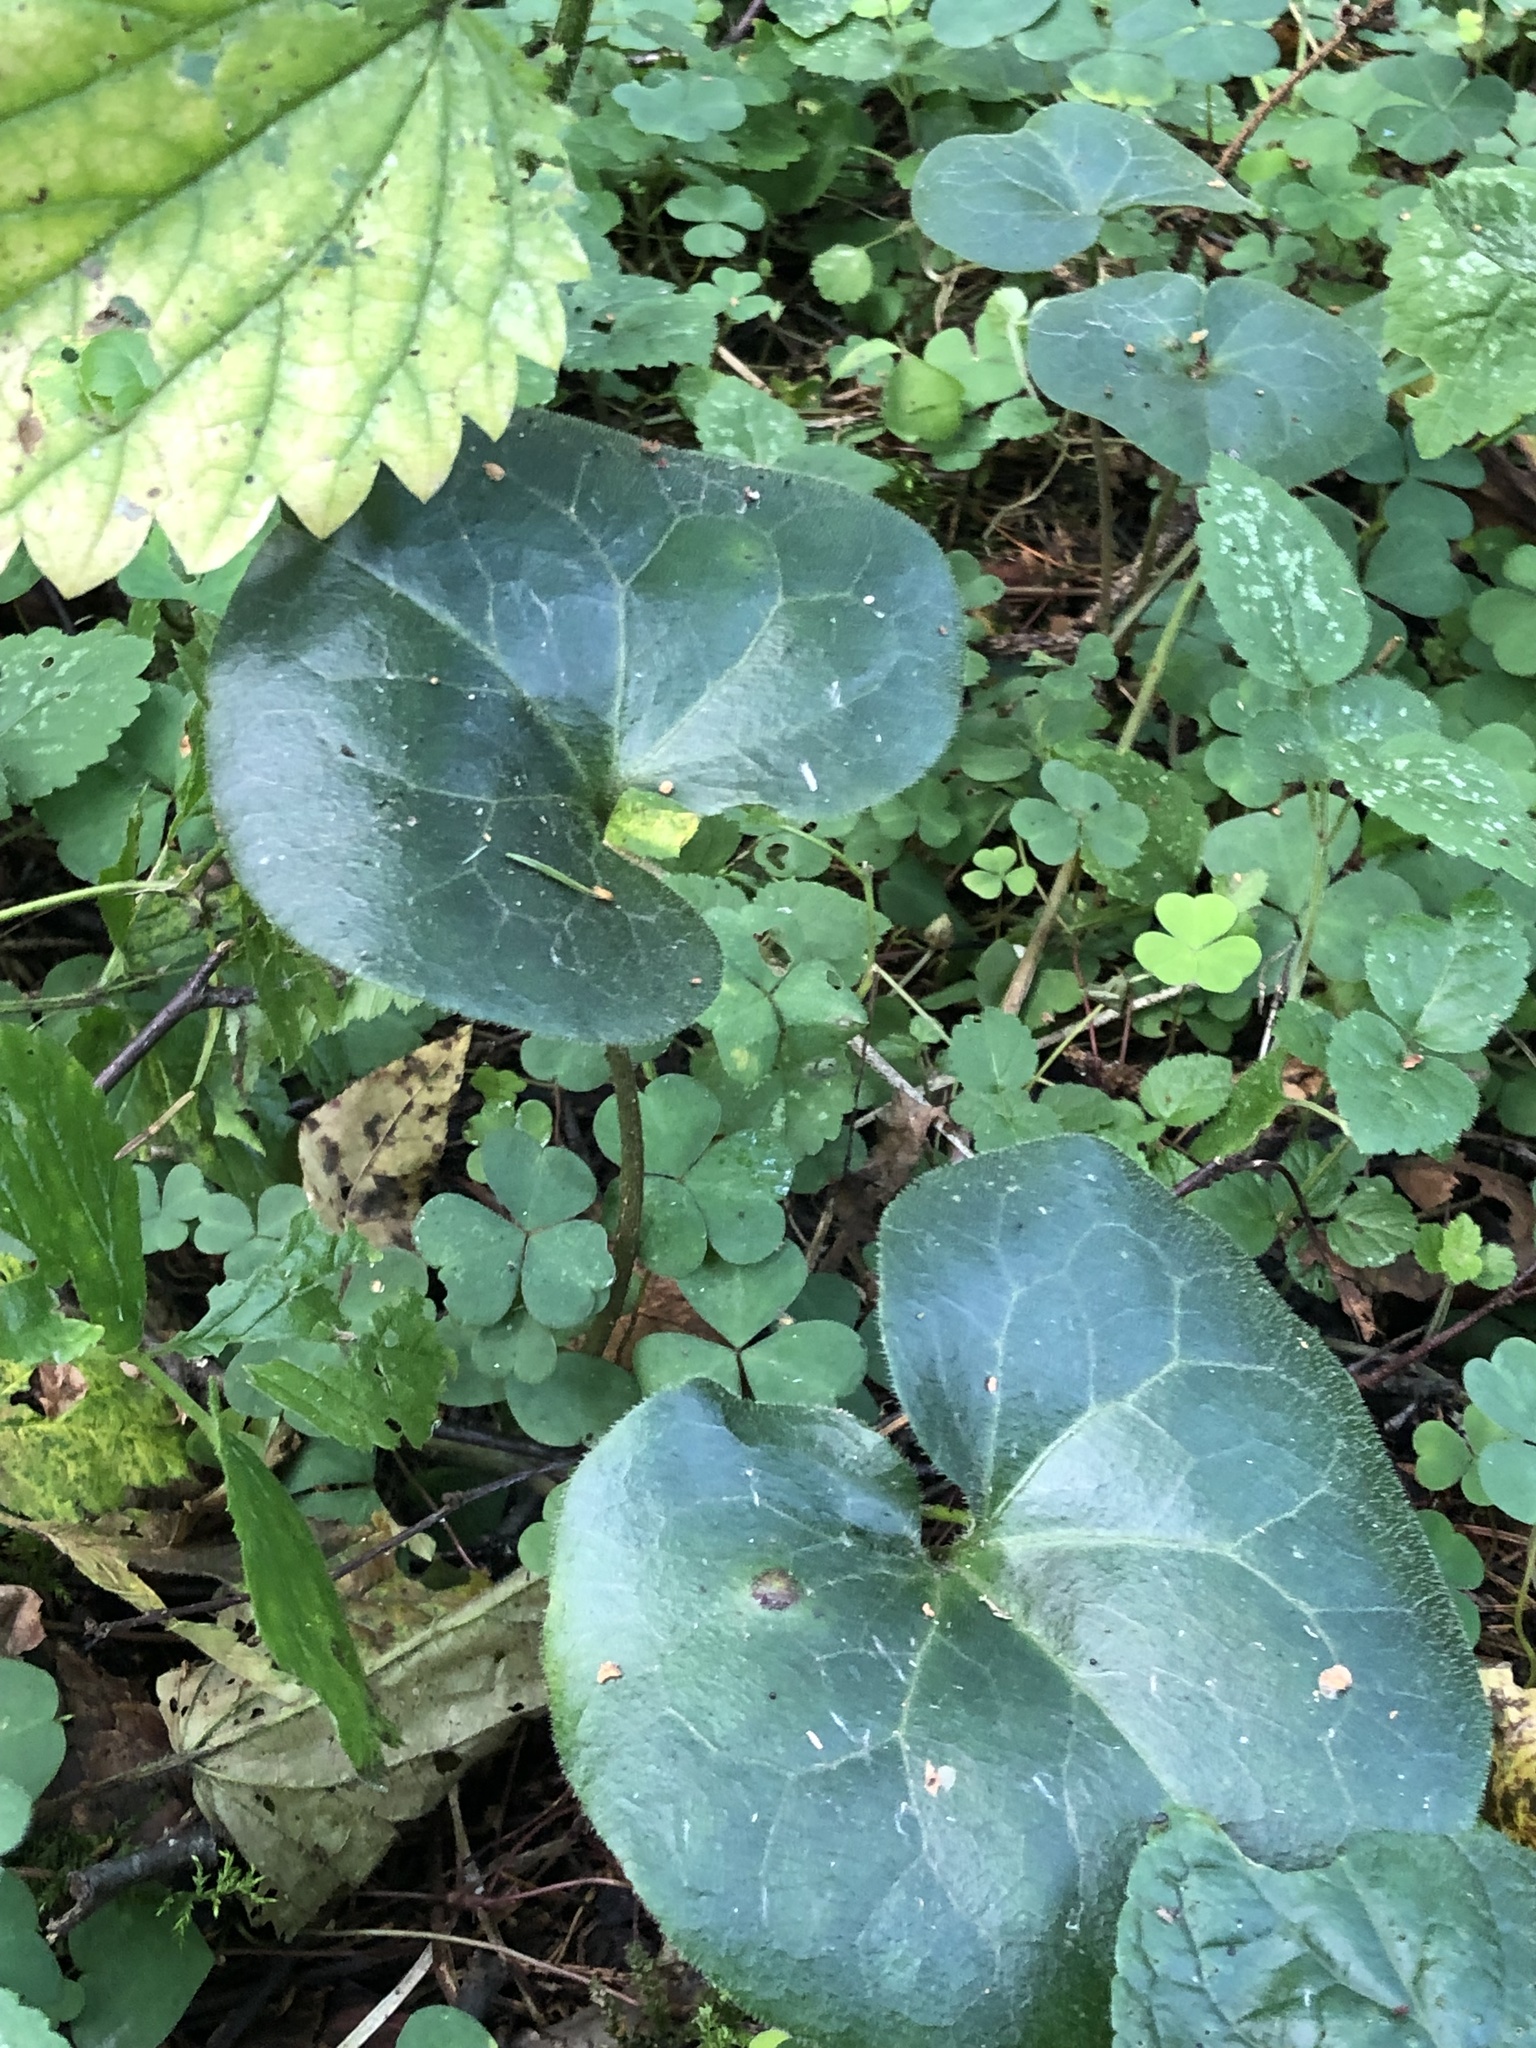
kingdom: Plantae
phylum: Tracheophyta
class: Magnoliopsida
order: Piperales
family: Aristolochiaceae
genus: Asarum
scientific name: Asarum europaeum
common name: Asarabacca
